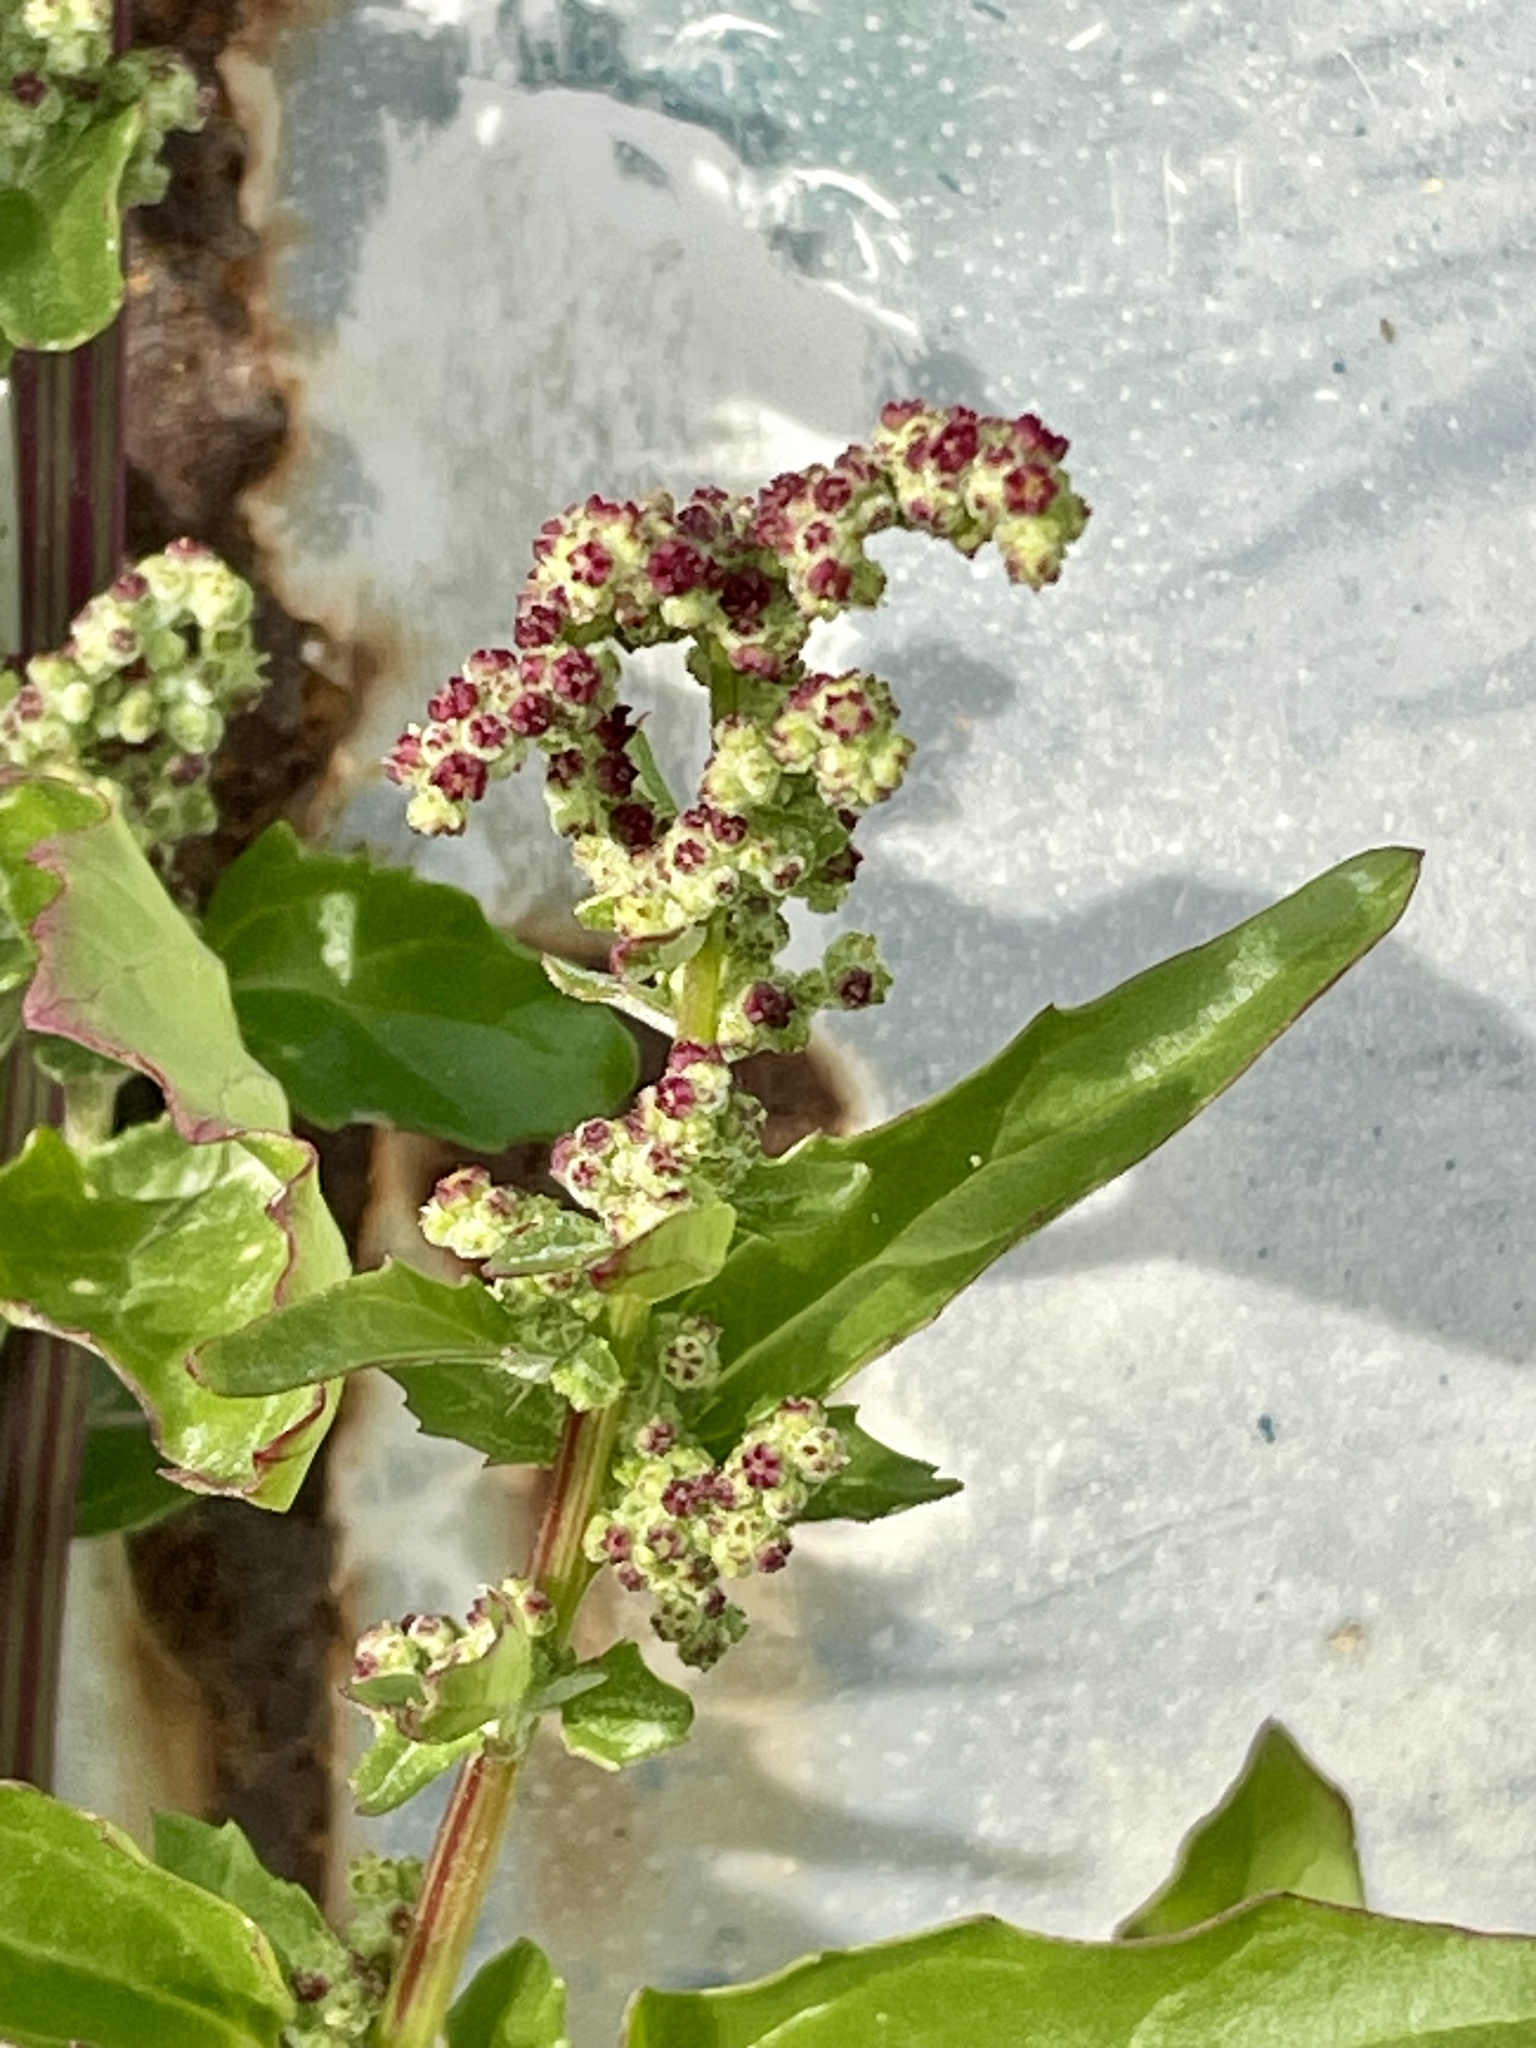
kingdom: Plantae
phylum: Tracheophyta
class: Magnoliopsida
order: Caryophyllales
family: Amaranthaceae
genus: Chenopodiastrum
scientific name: Chenopodiastrum murale
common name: Sowbane
